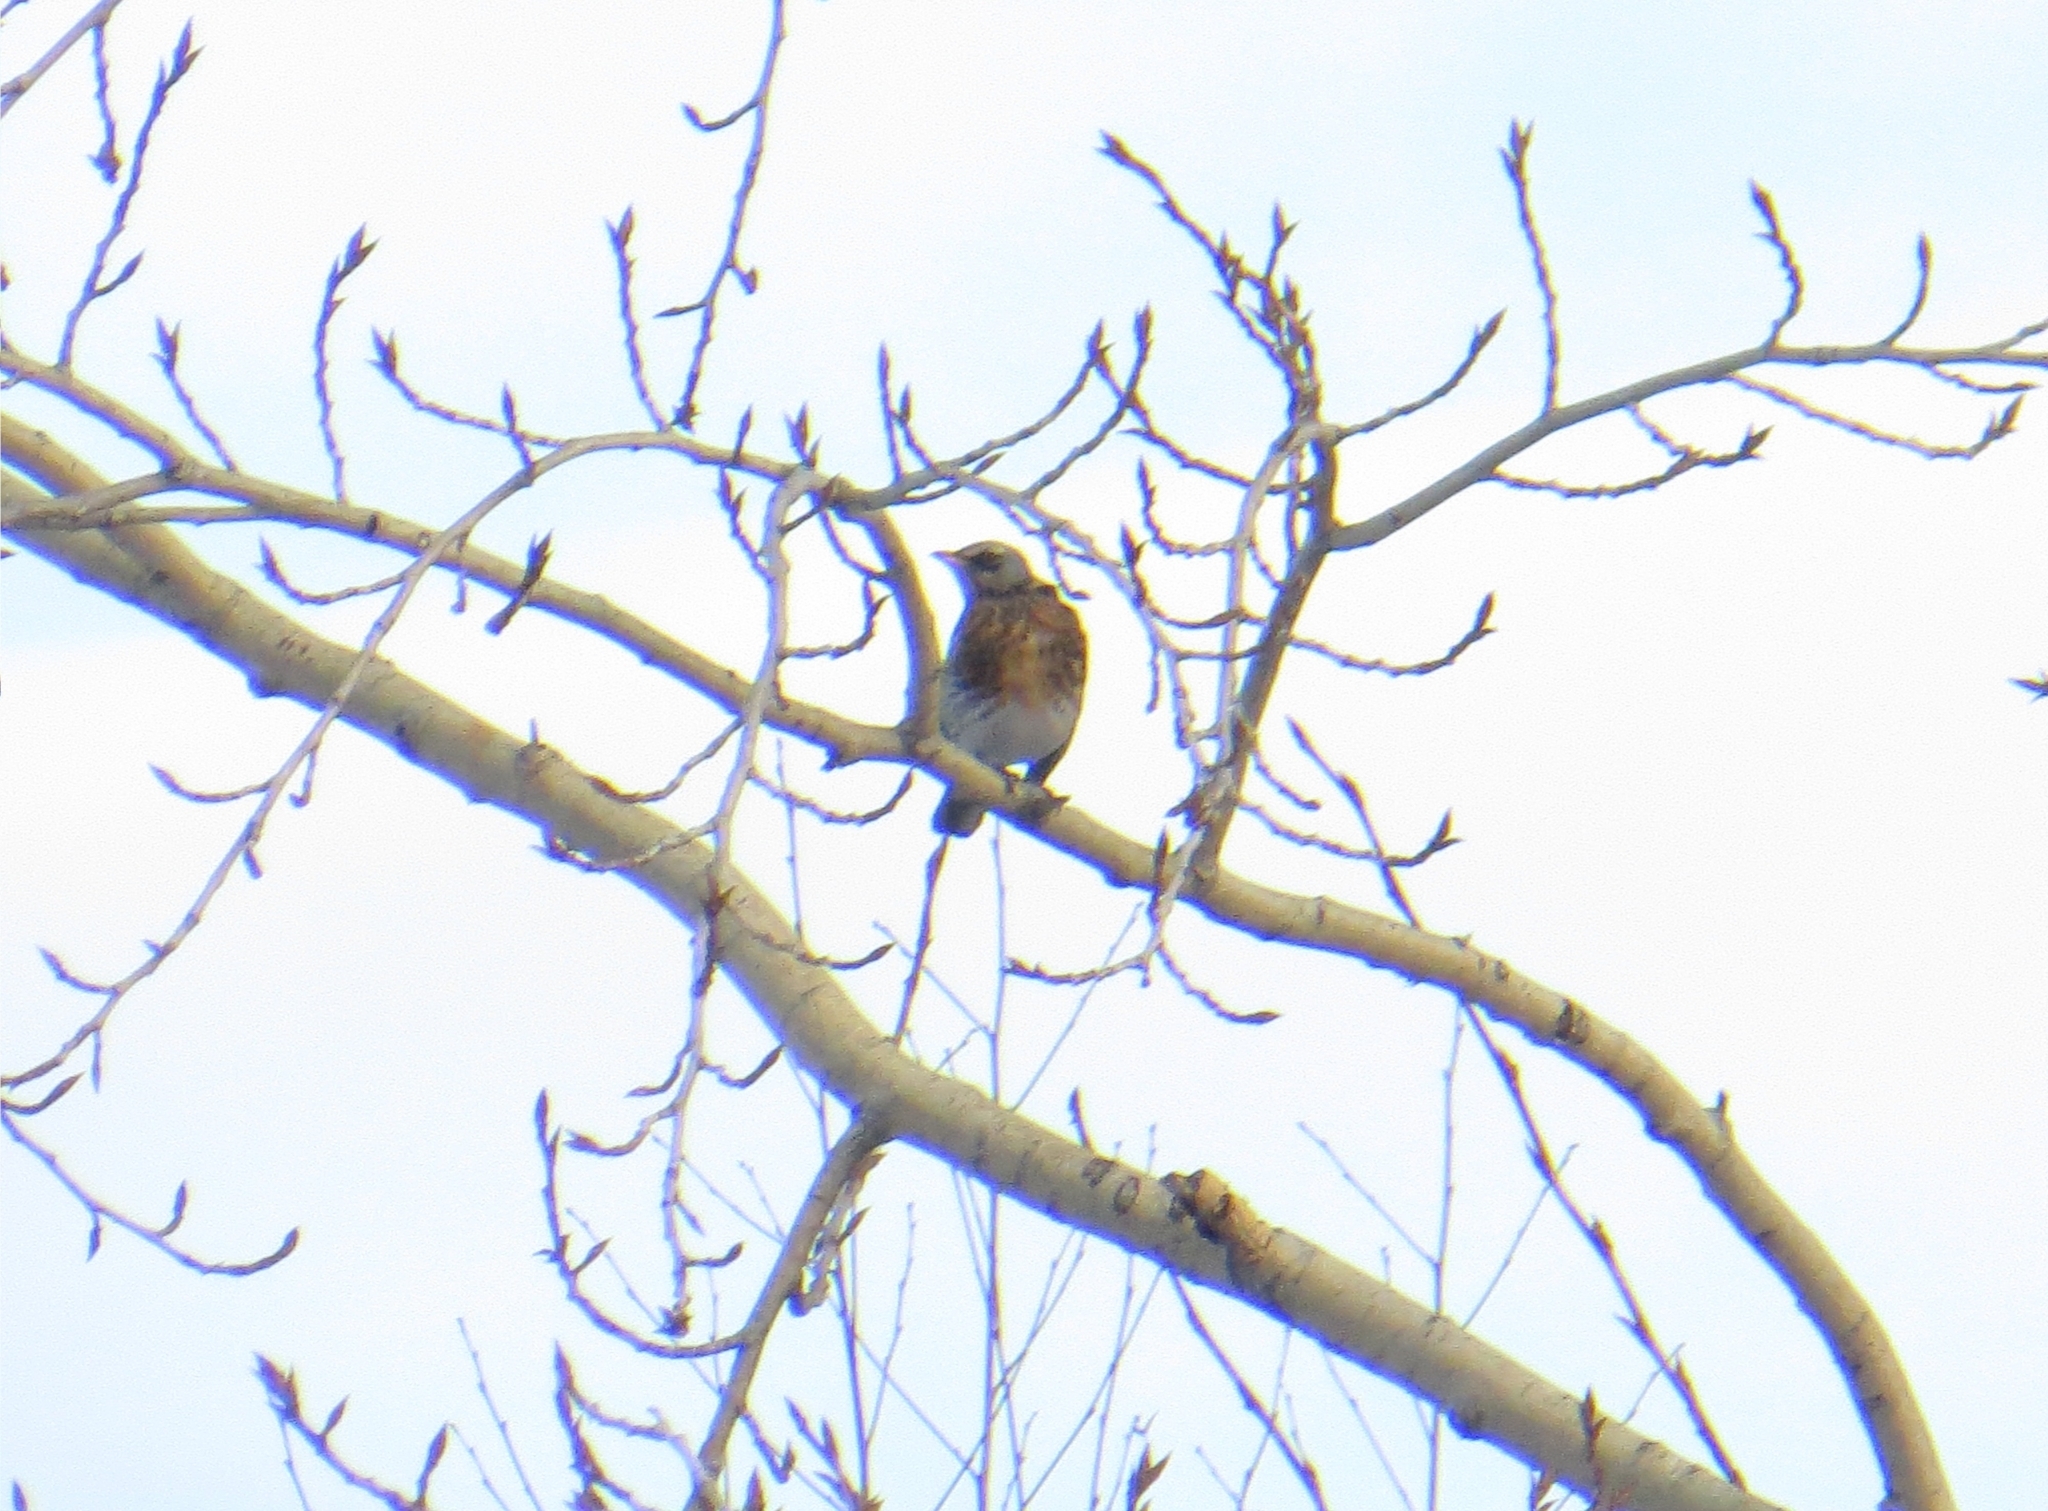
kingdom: Animalia
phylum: Chordata
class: Aves
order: Passeriformes
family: Turdidae
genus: Turdus
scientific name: Turdus pilaris
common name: Fieldfare
